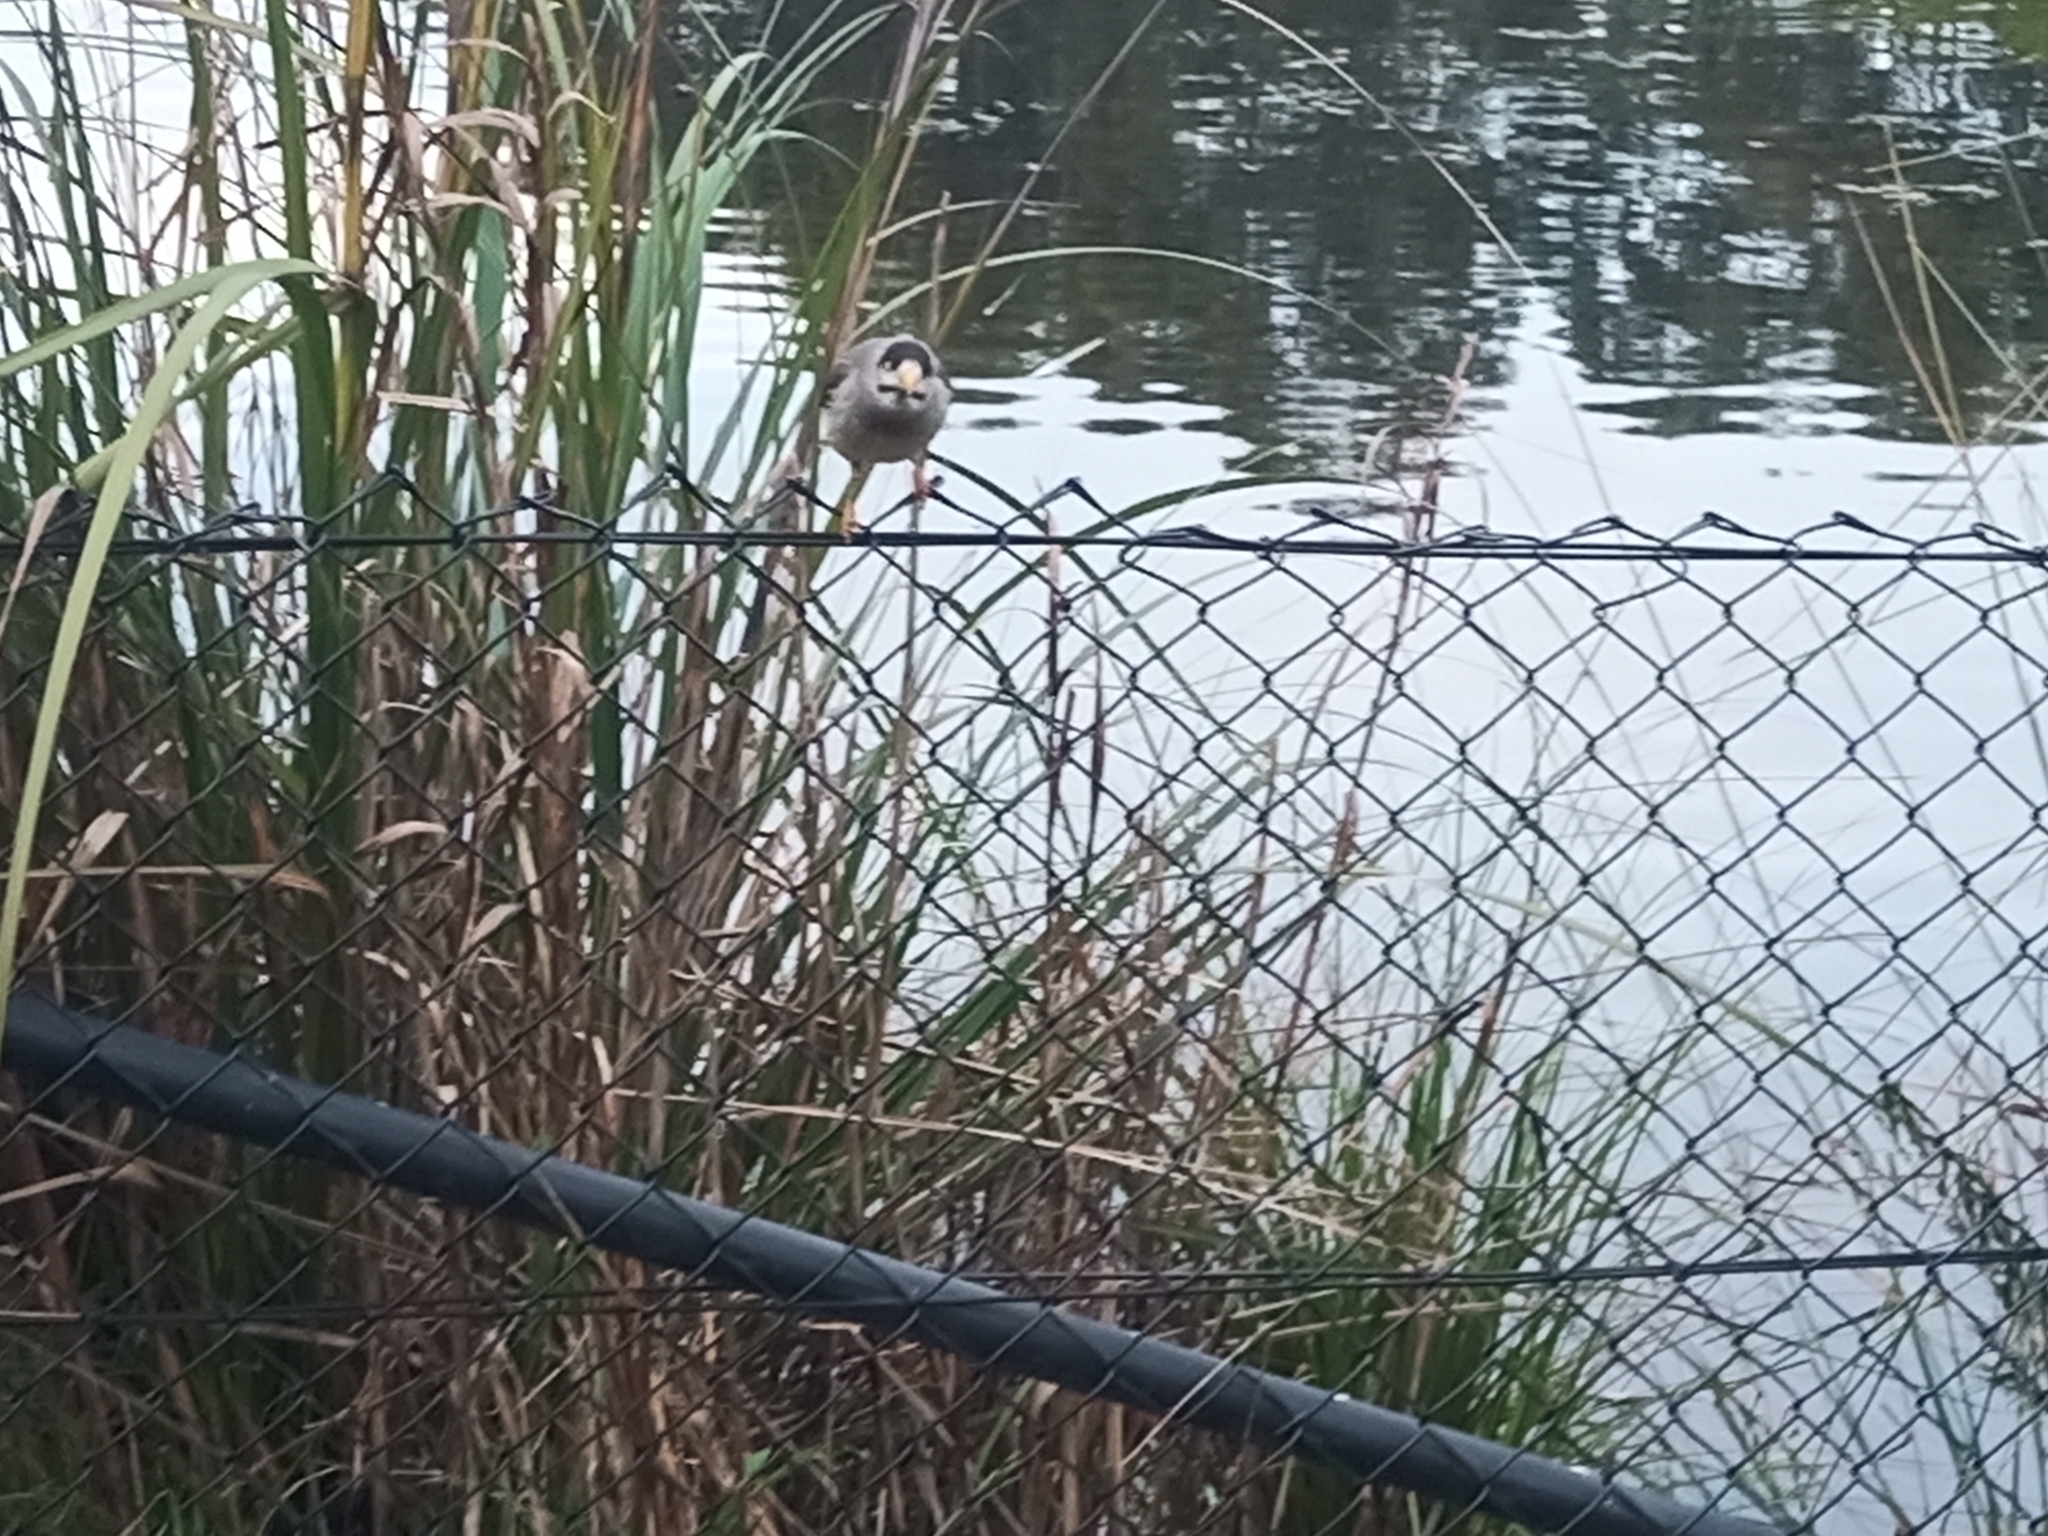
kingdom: Animalia
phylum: Chordata
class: Aves
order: Passeriformes
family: Meliphagidae
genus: Manorina
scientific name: Manorina melanocephala
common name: Noisy miner
